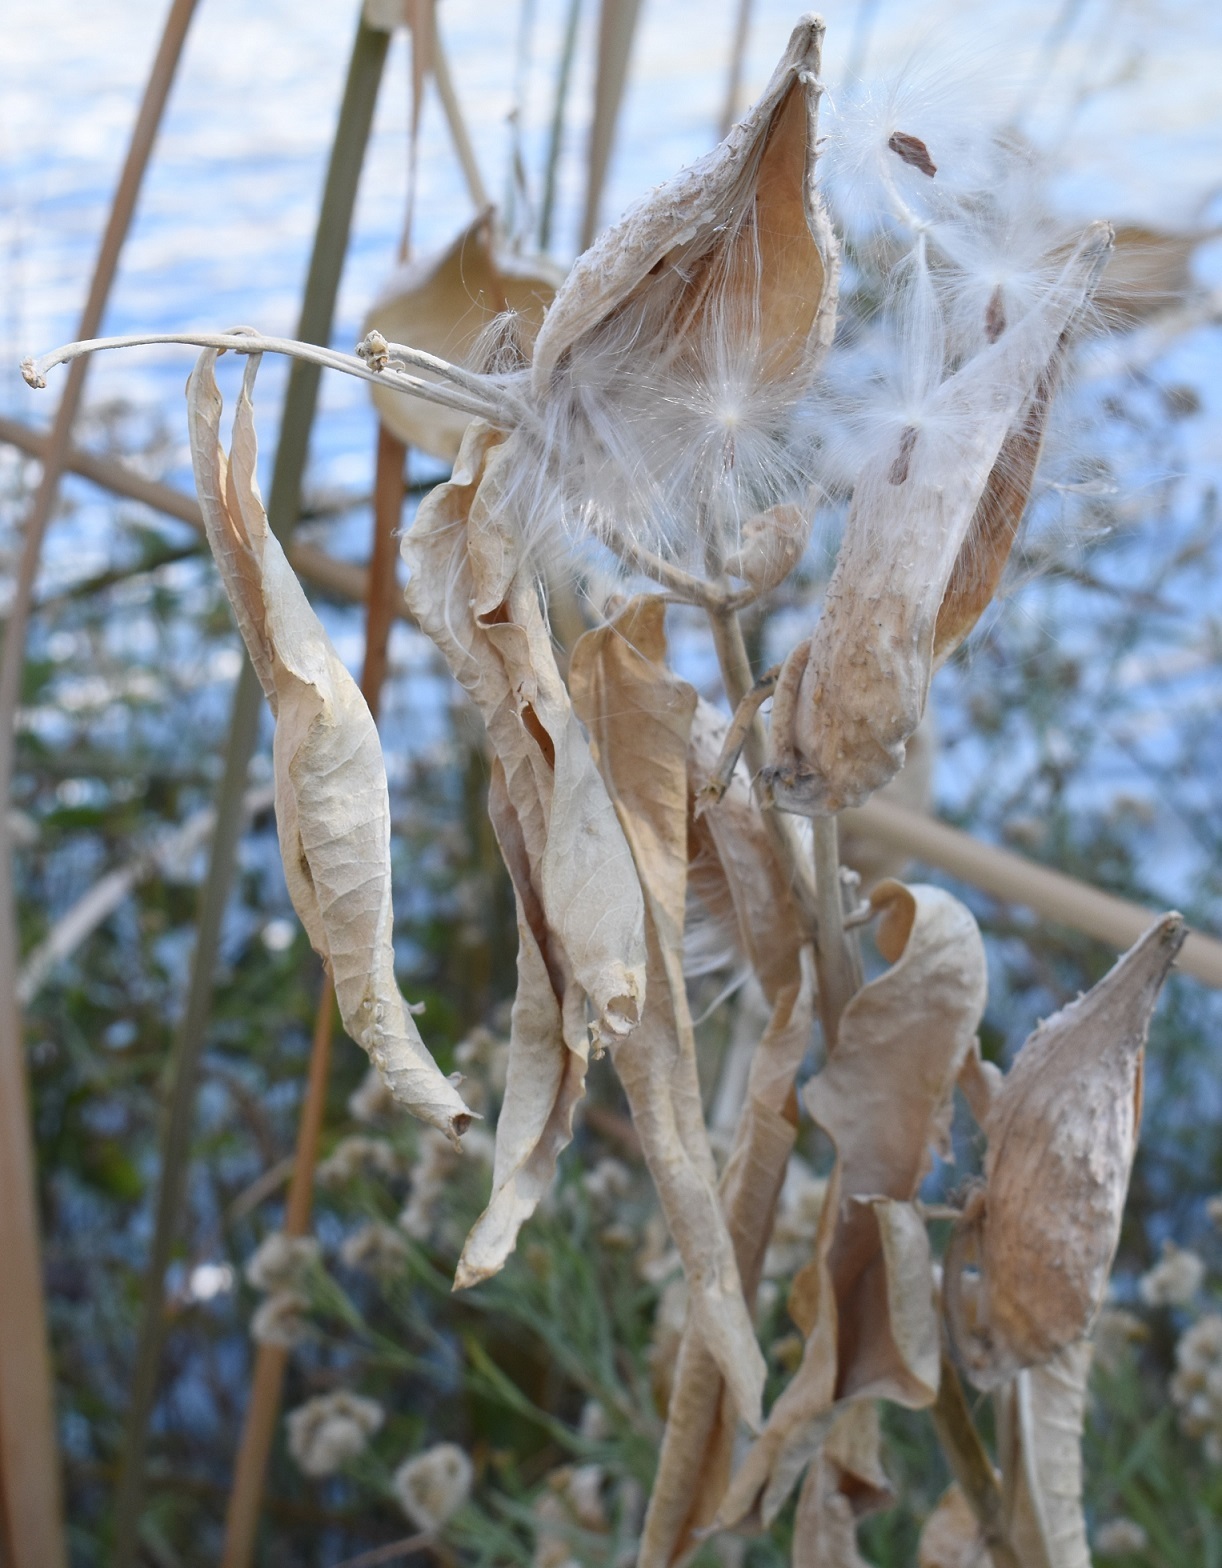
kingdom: Plantae
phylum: Tracheophyta
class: Magnoliopsida
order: Gentianales
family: Apocynaceae
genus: Asclepias
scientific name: Asclepias speciosa
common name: Showy milkweed
